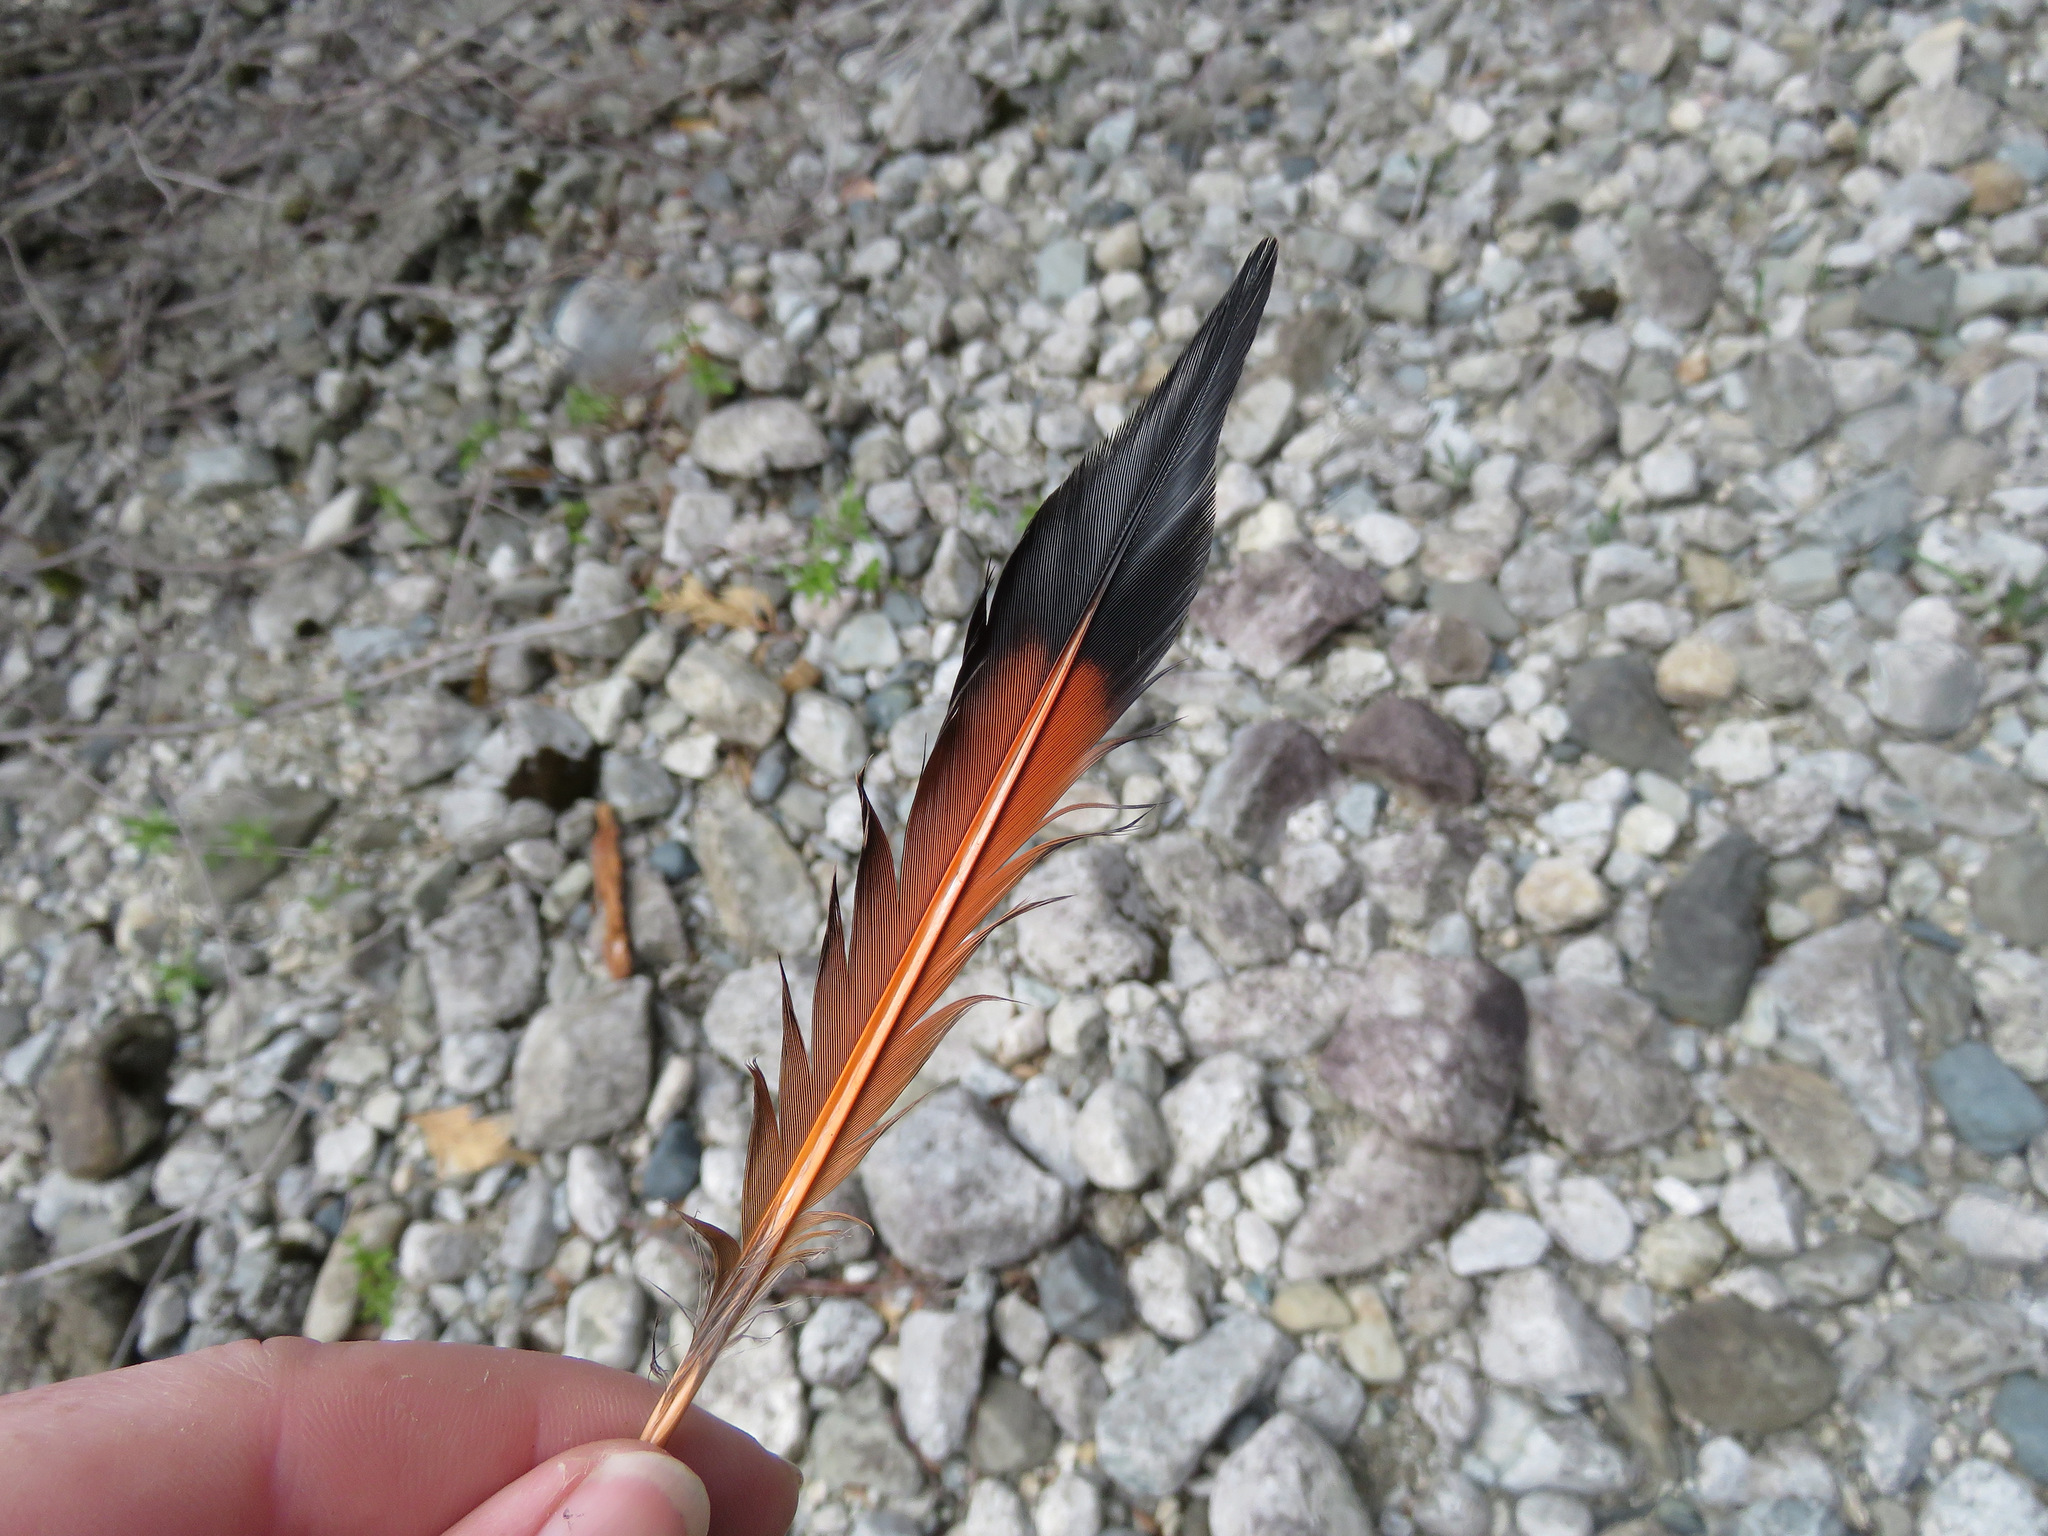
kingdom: Animalia
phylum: Chordata
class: Aves
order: Piciformes
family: Picidae
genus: Colaptes
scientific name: Colaptes auratus
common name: Northern flicker
